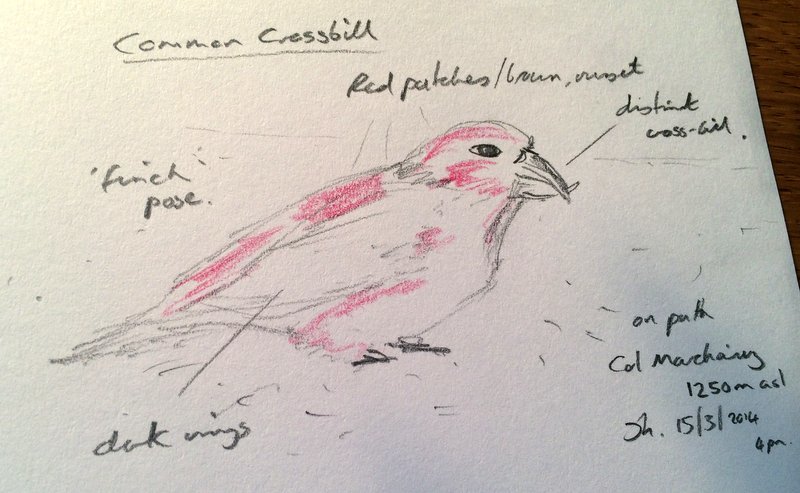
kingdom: Animalia
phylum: Chordata
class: Aves
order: Passeriformes
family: Fringillidae
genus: Loxia
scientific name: Loxia curvirostra
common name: Red crossbill
